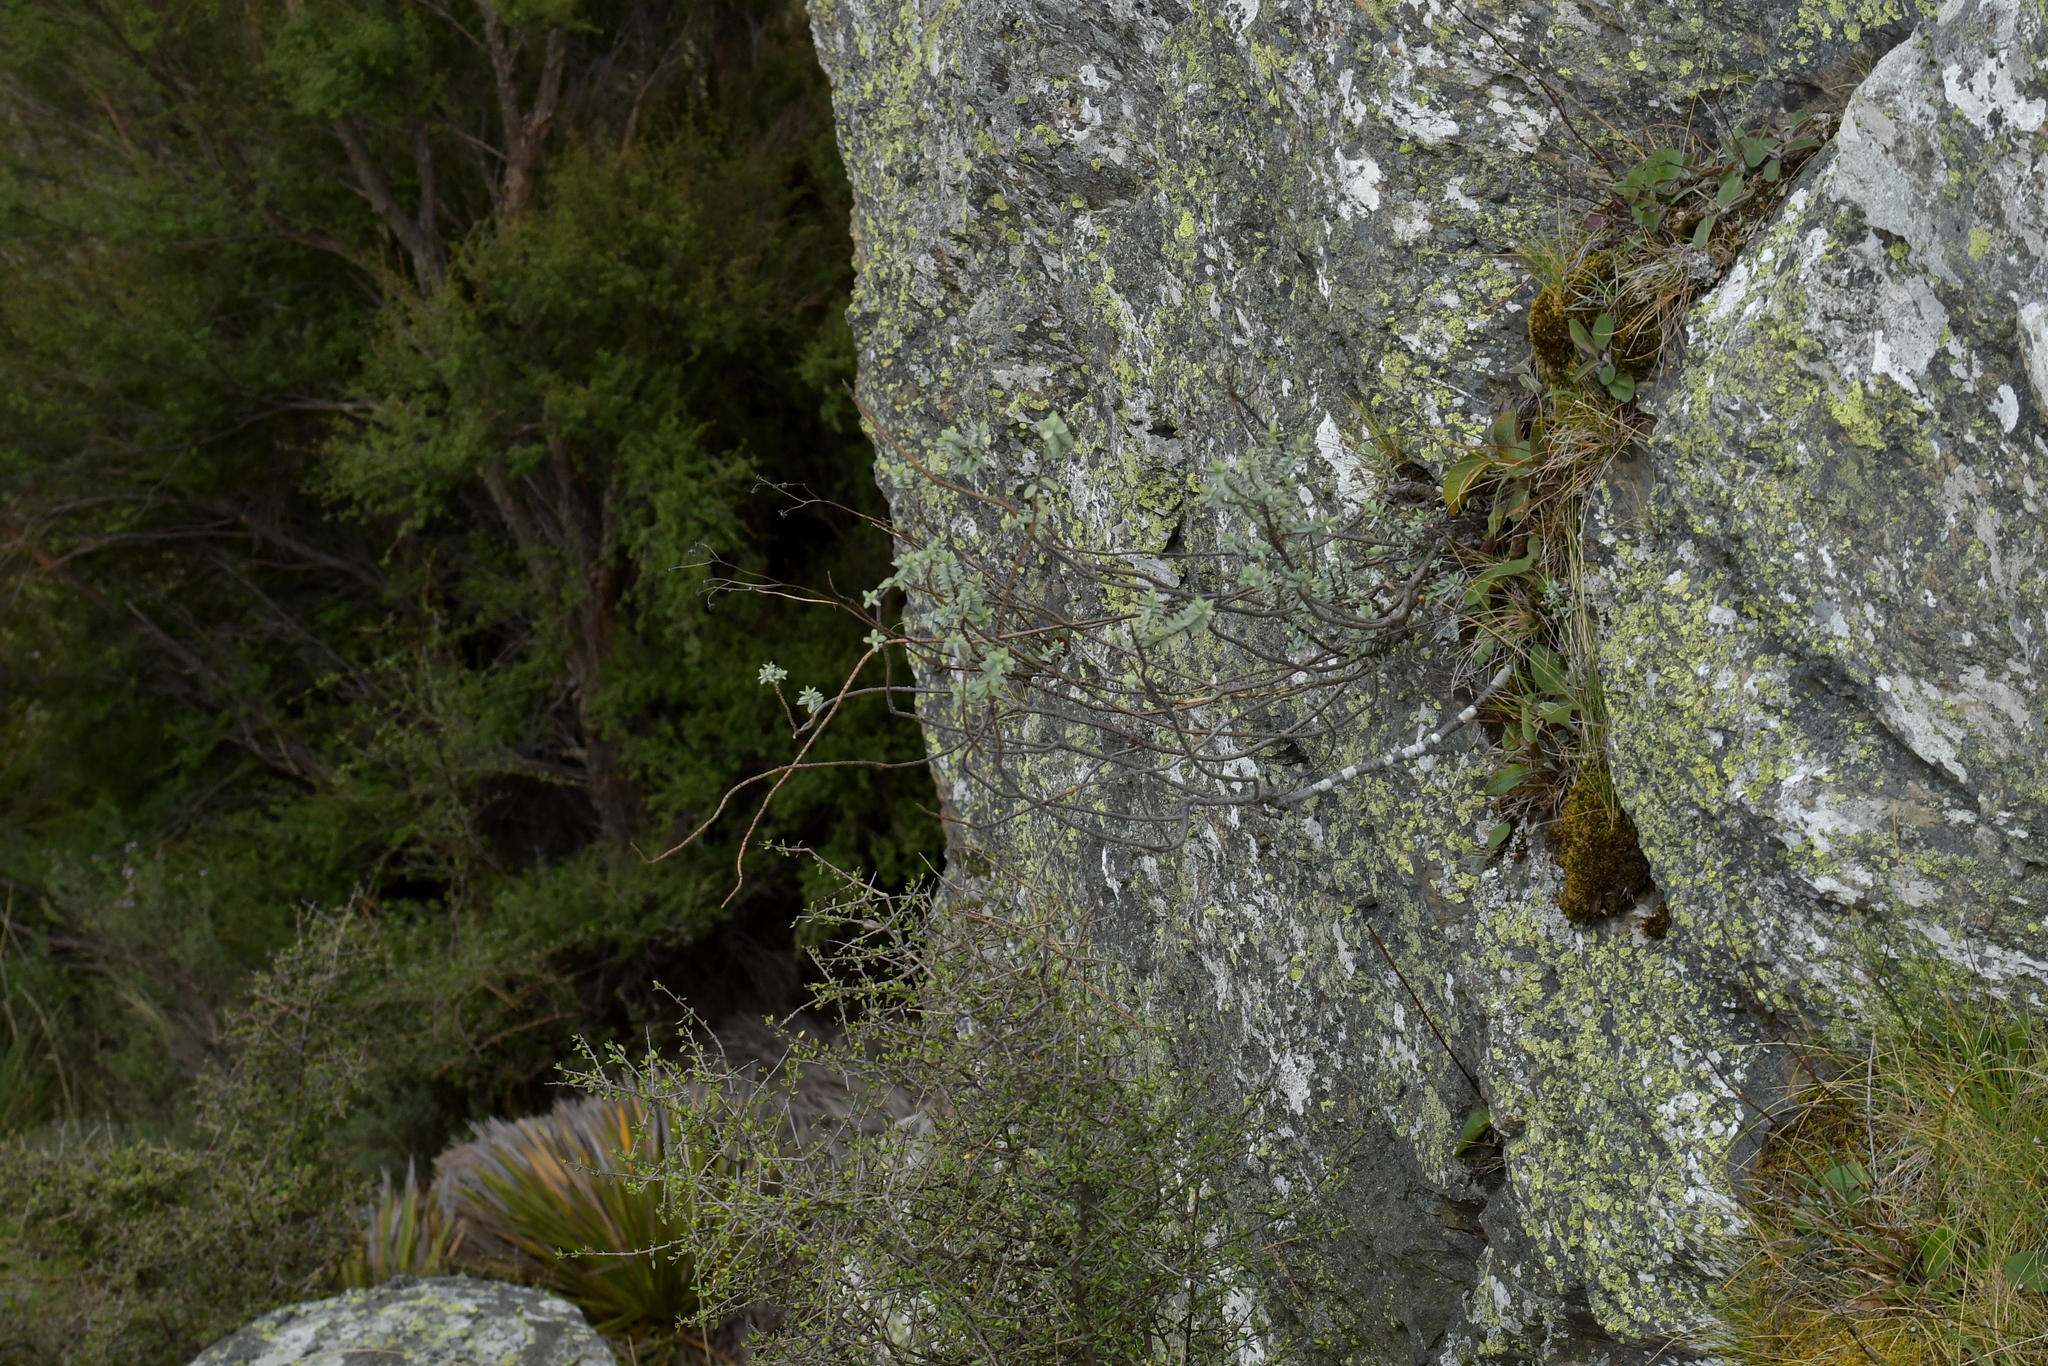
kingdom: Plantae
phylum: Tracheophyta
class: Magnoliopsida
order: Lamiales
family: Plantaginaceae
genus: Veronica
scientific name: Veronica pimeleoides
